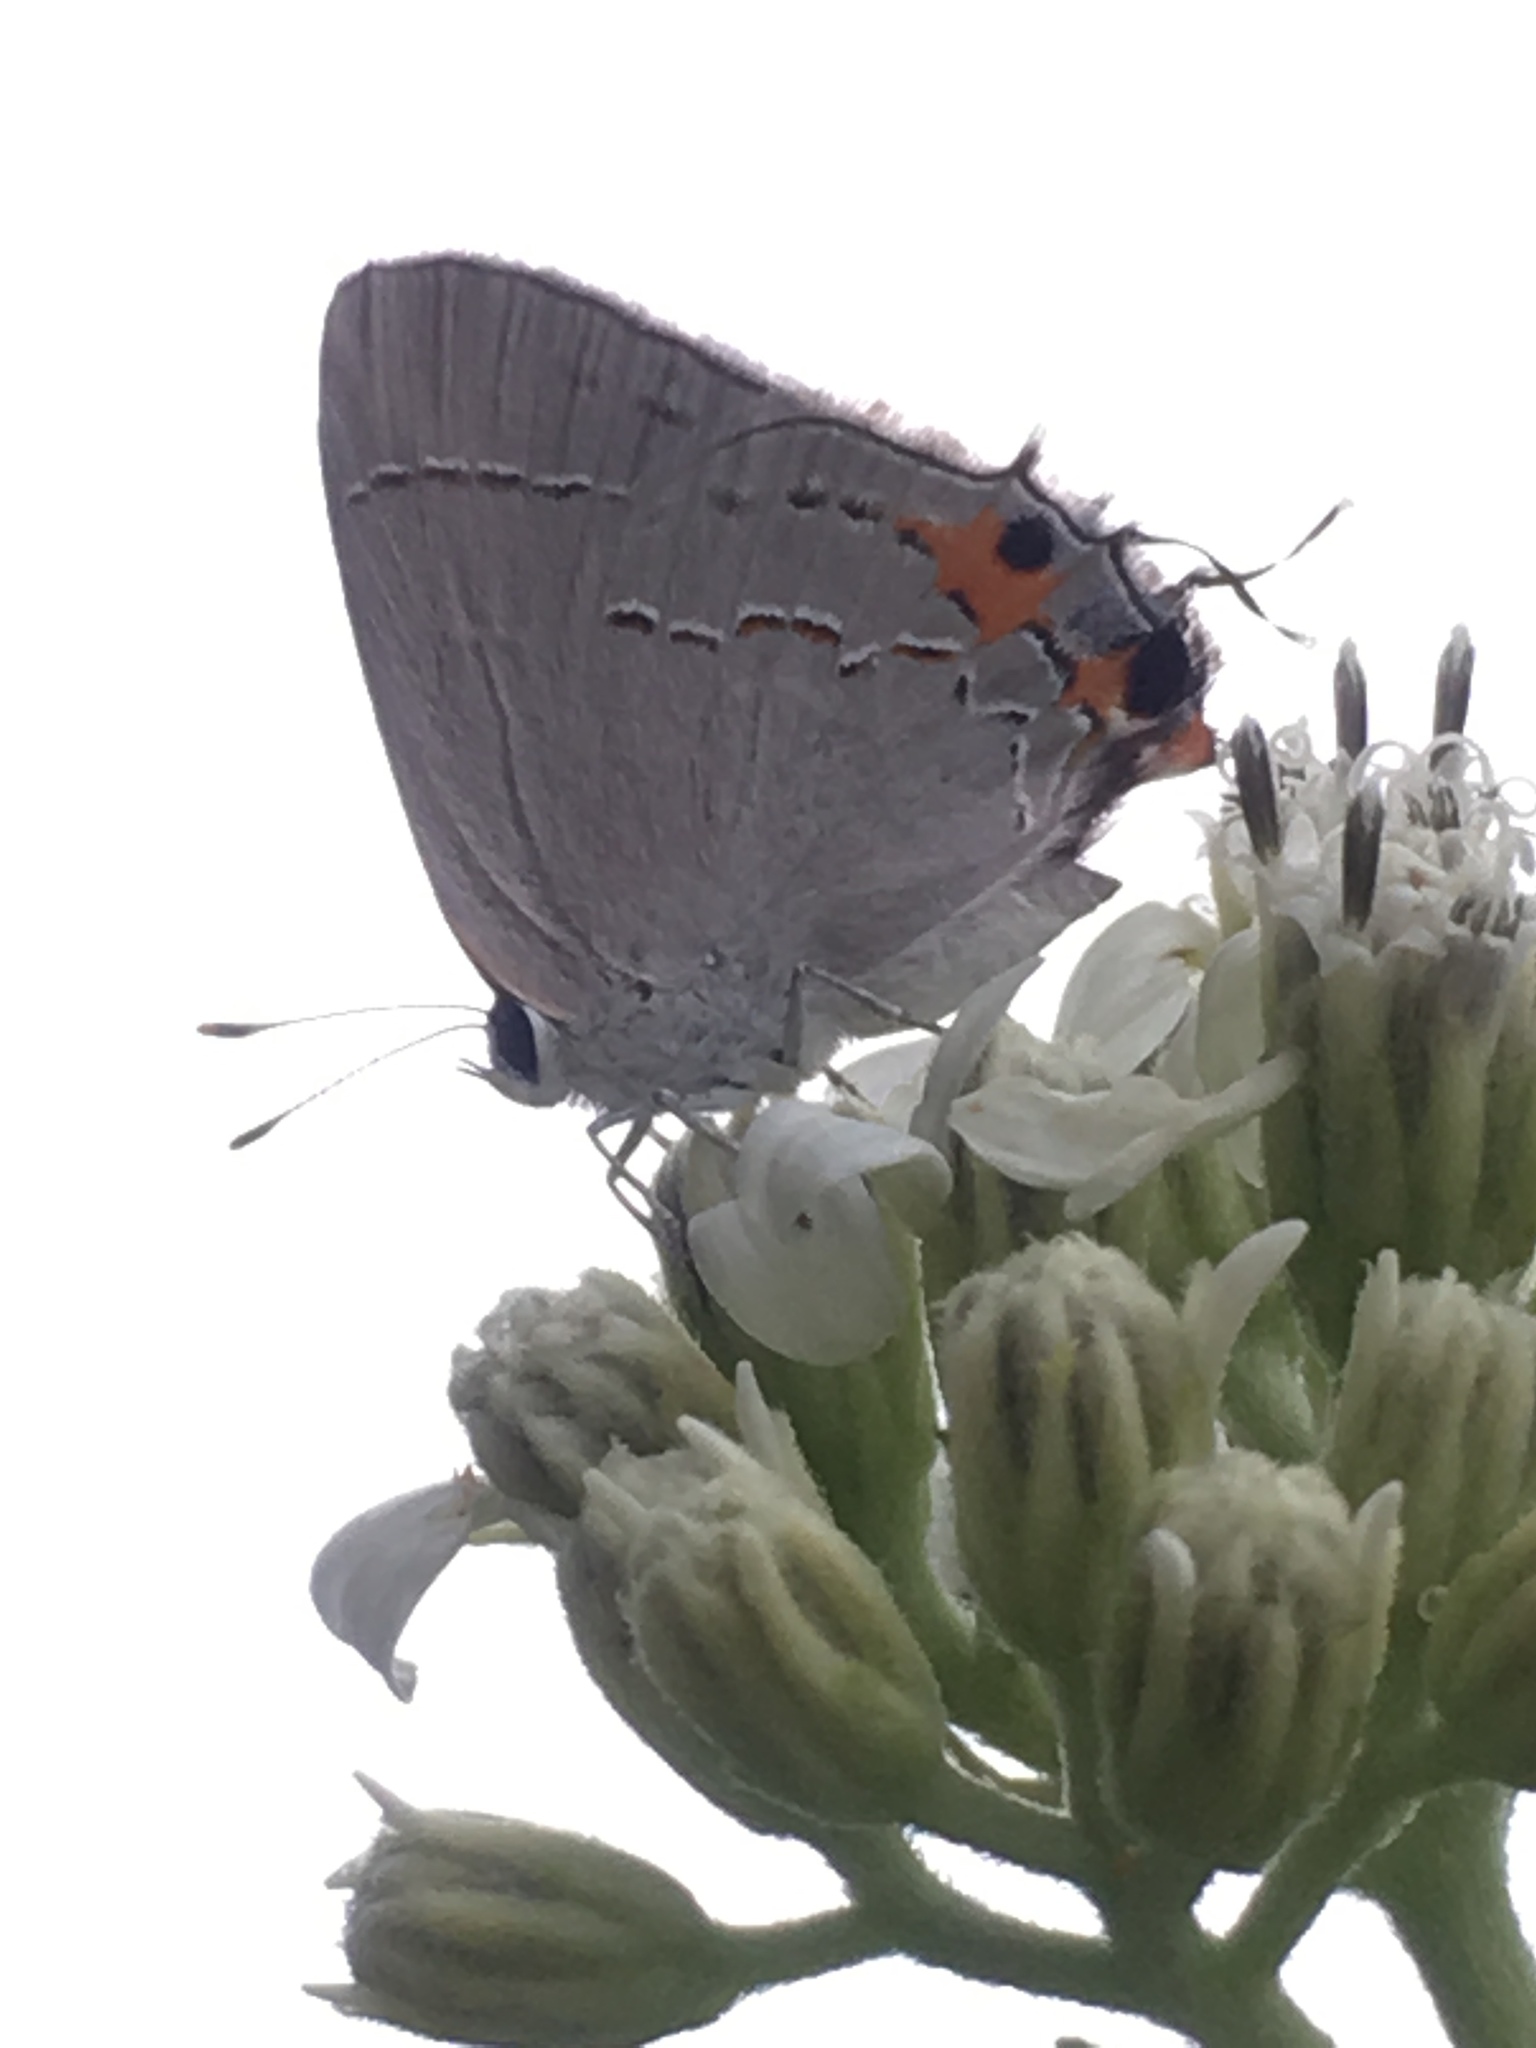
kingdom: Animalia
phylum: Arthropoda
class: Insecta
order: Lepidoptera
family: Lycaenidae
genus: Strymon
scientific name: Strymon melinus
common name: Gray hairstreak
